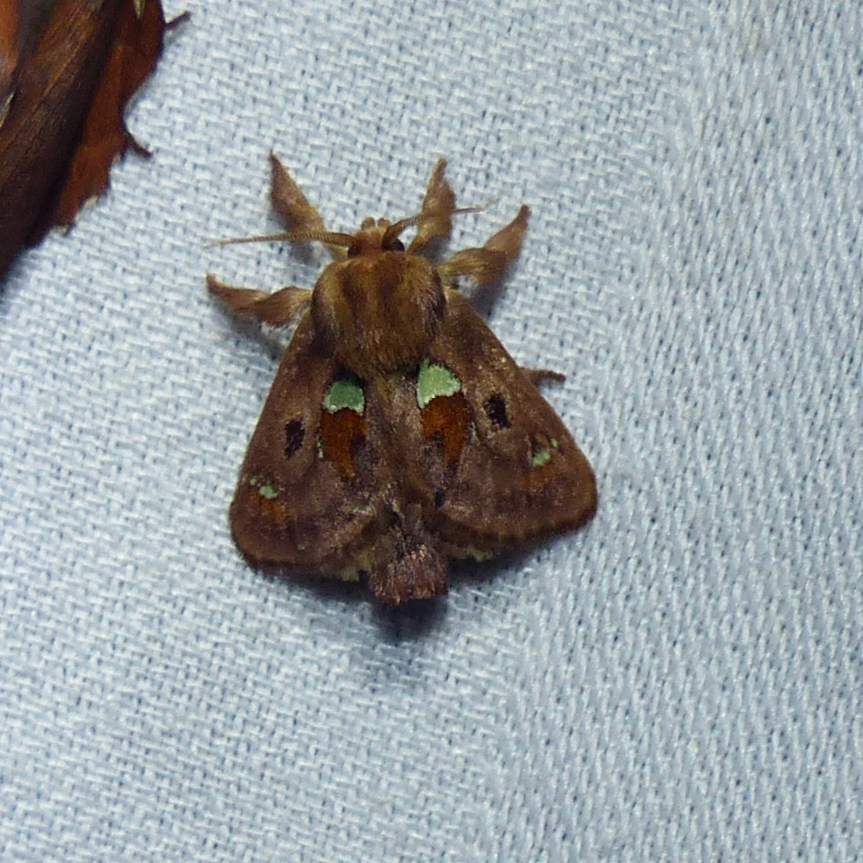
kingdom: Animalia
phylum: Arthropoda
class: Insecta
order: Lepidoptera
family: Limacodidae
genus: Euclea
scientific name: Euclea delphinii
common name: Spiny oak-slug moth
